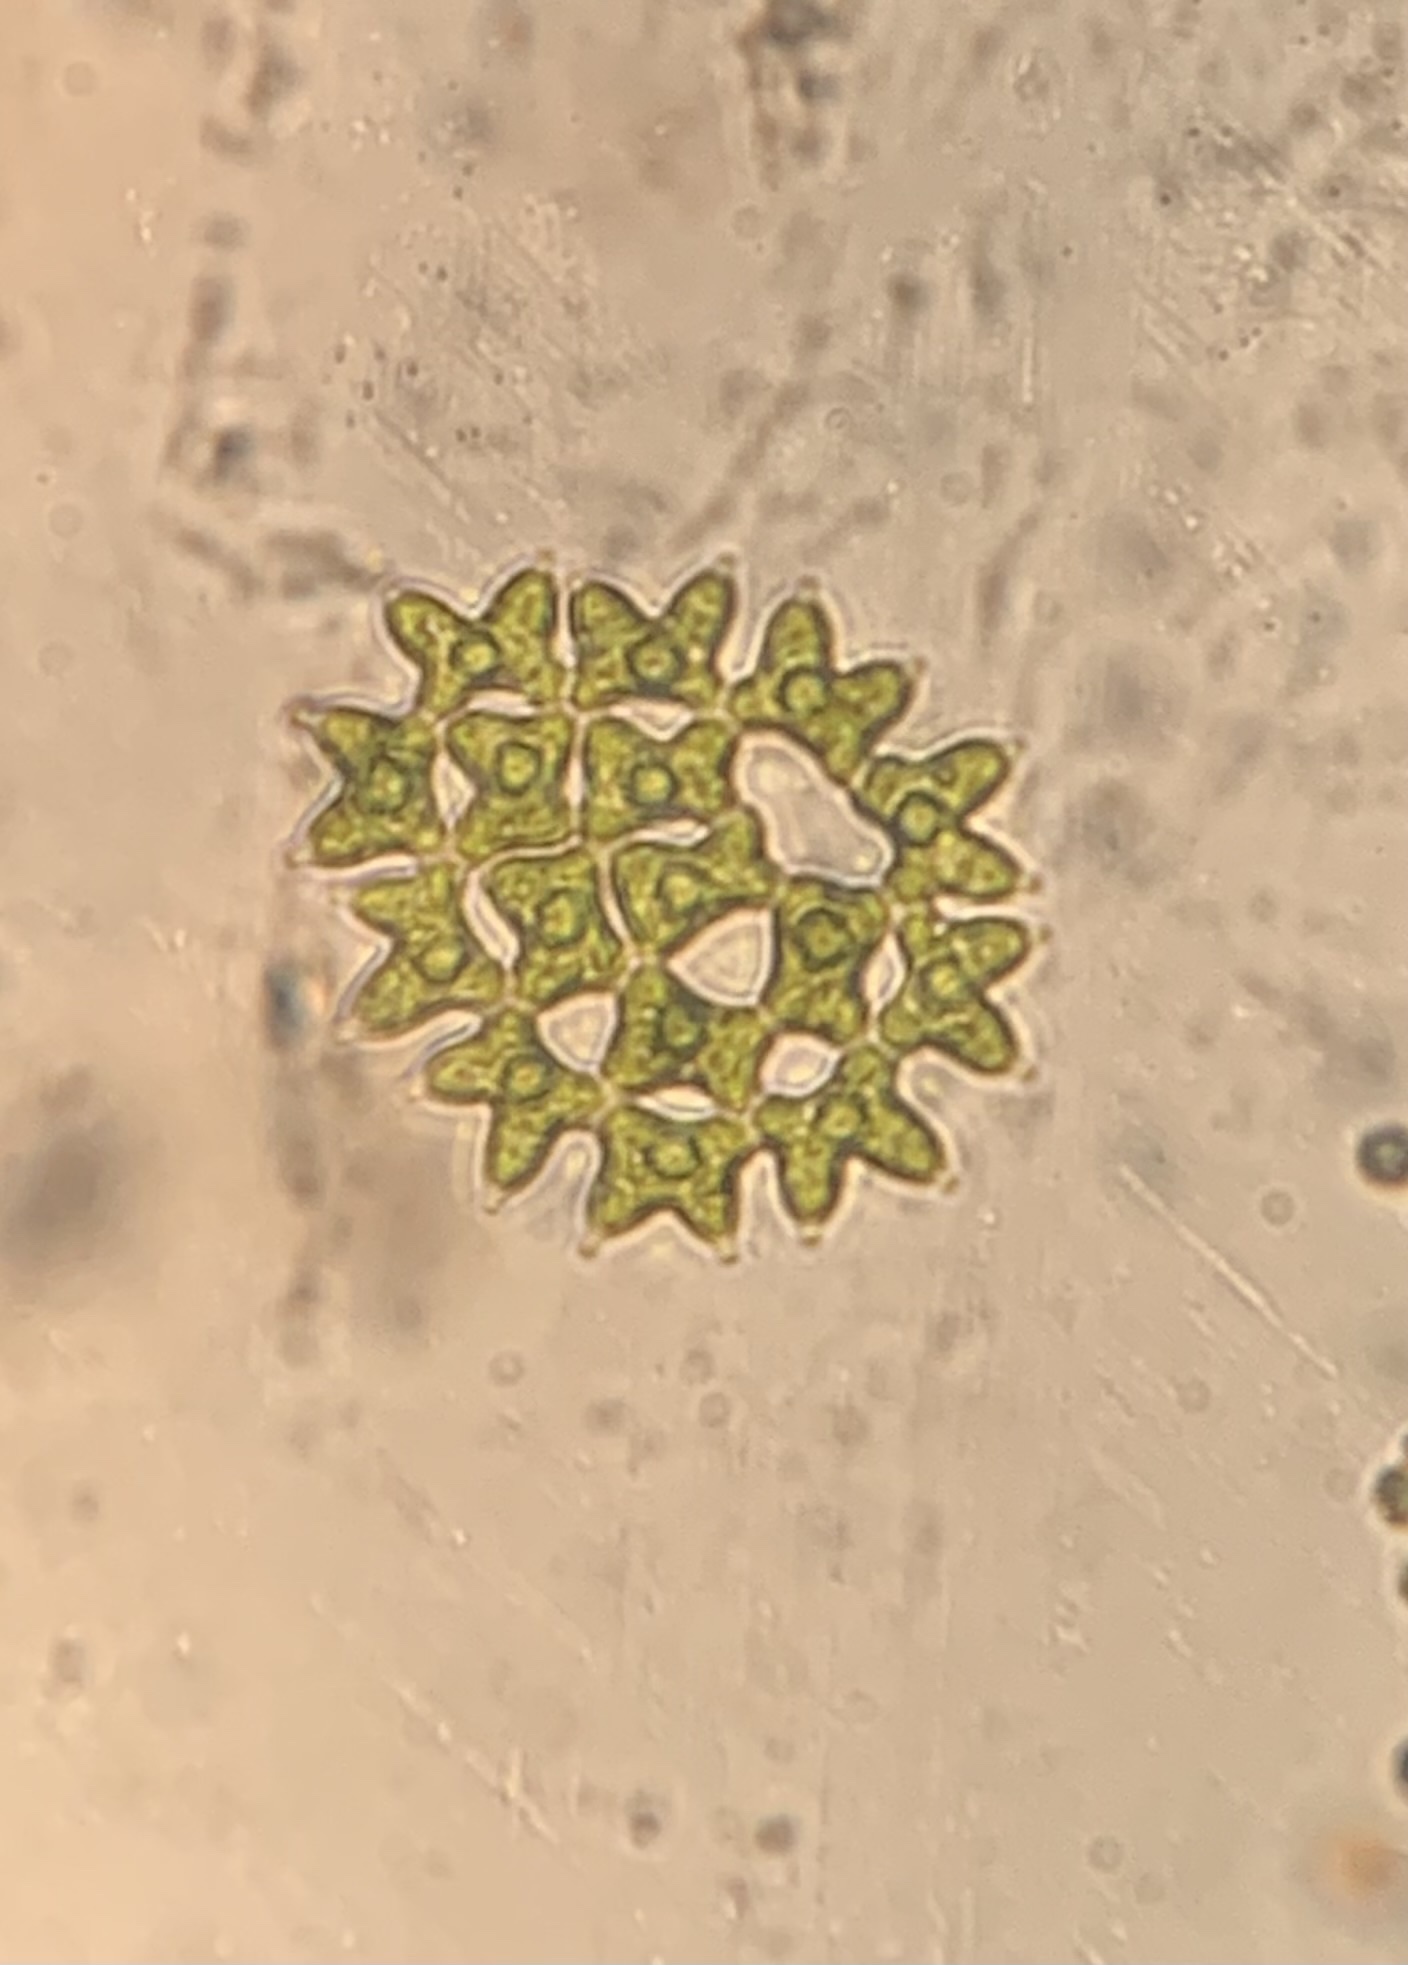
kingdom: Plantae
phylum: Chlorophyta
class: Chlorophyceae
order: Sphaeropleales
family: Hydrodictyaceae
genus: Pediastrum
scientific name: Pediastrum duplex
